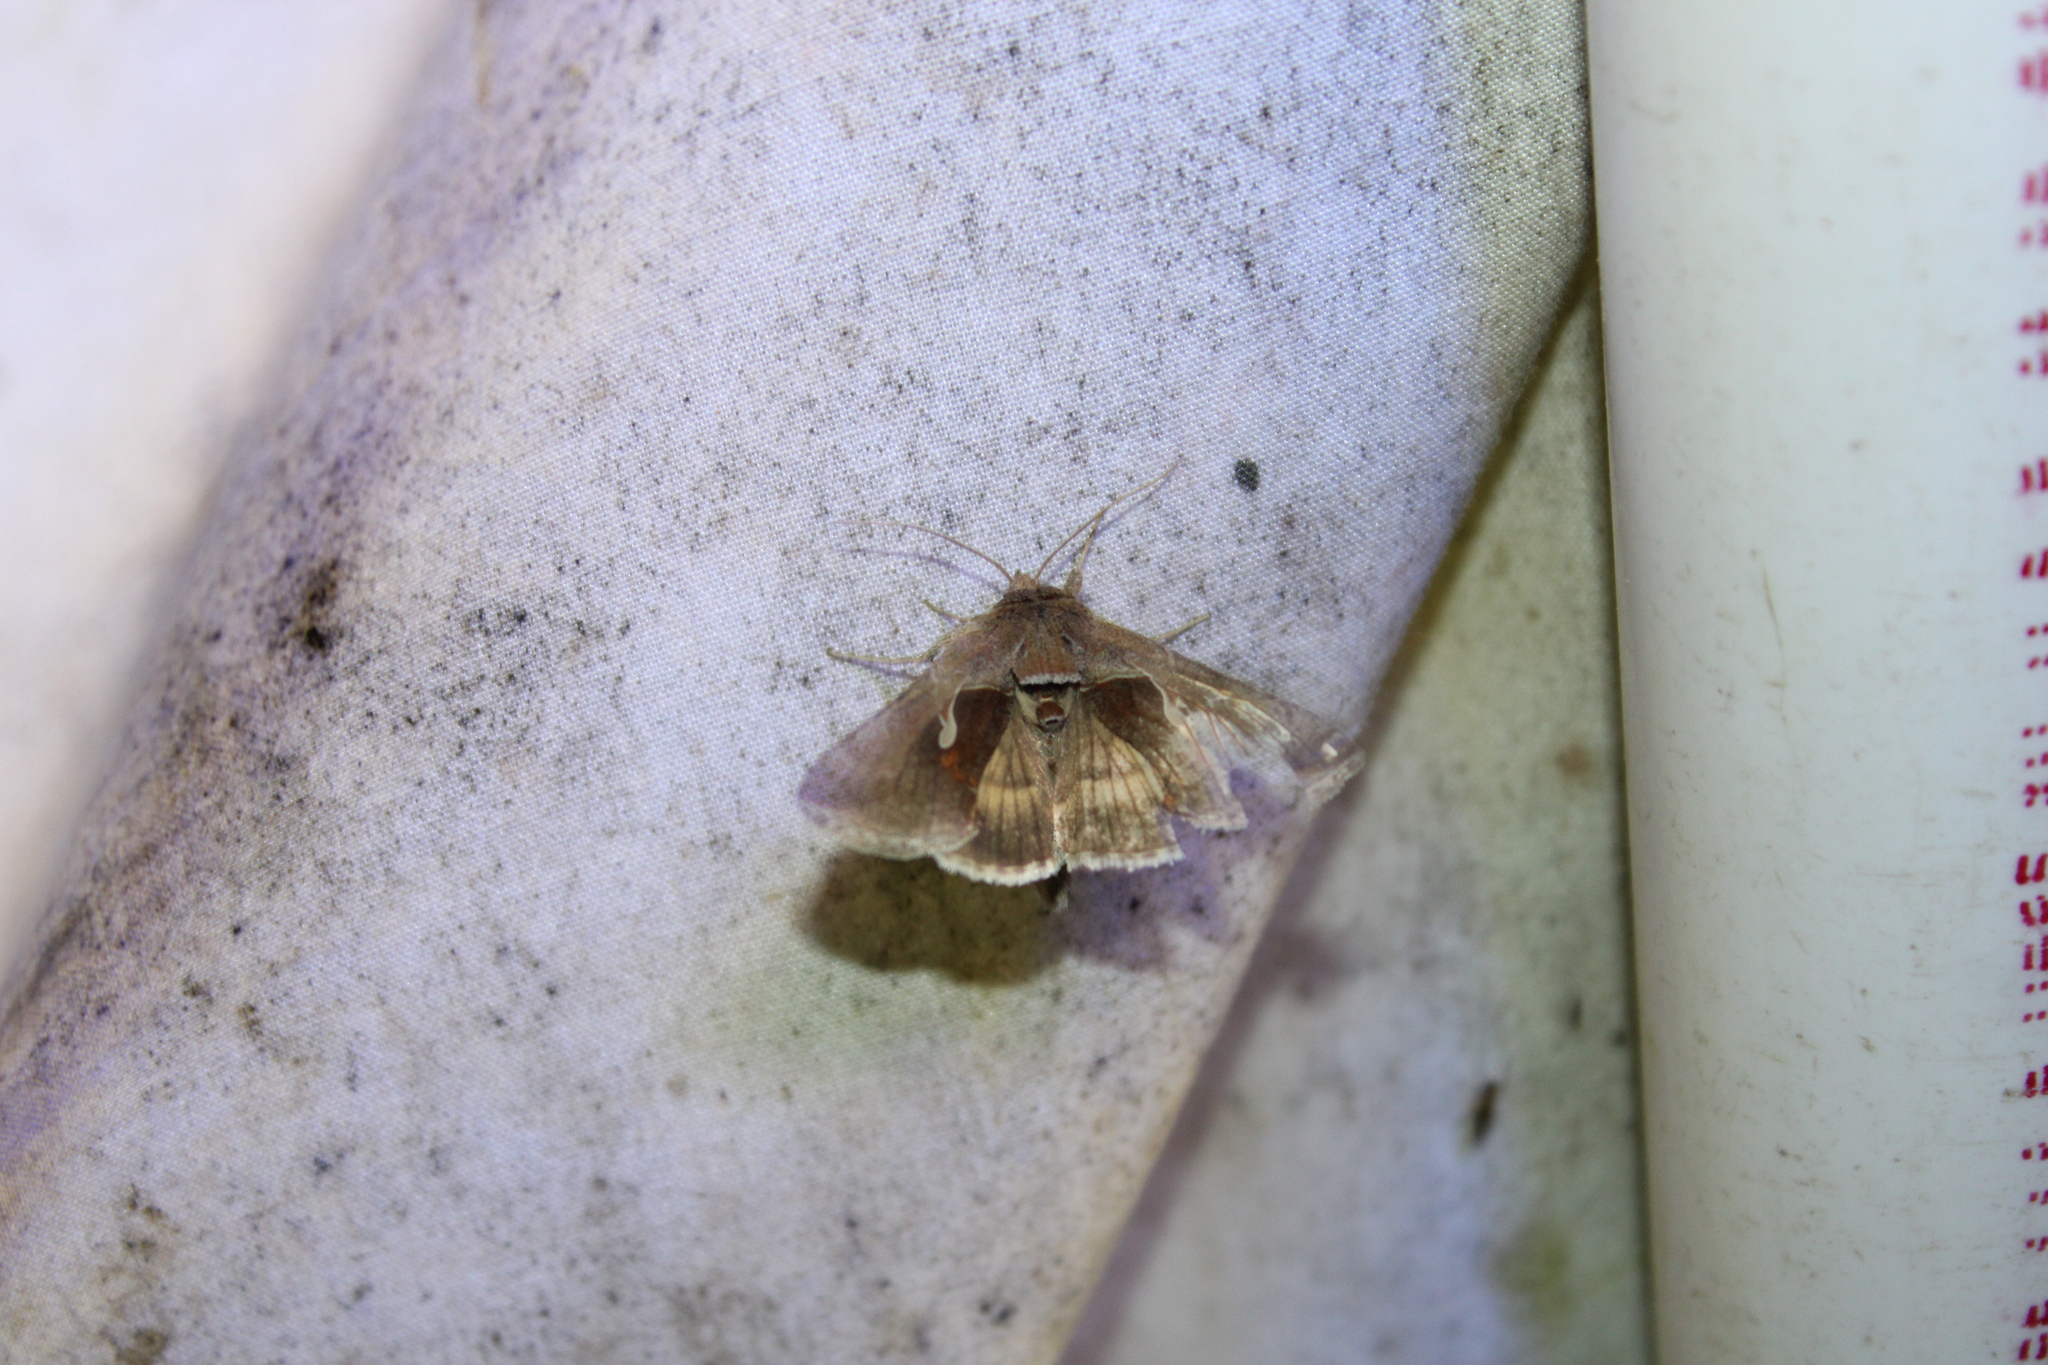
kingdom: Animalia
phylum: Arthropoda
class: Insecta
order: Lepidoptera
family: Noctuidae
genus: Anagrapha
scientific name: Anagrapha falcifera
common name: Celery looper
